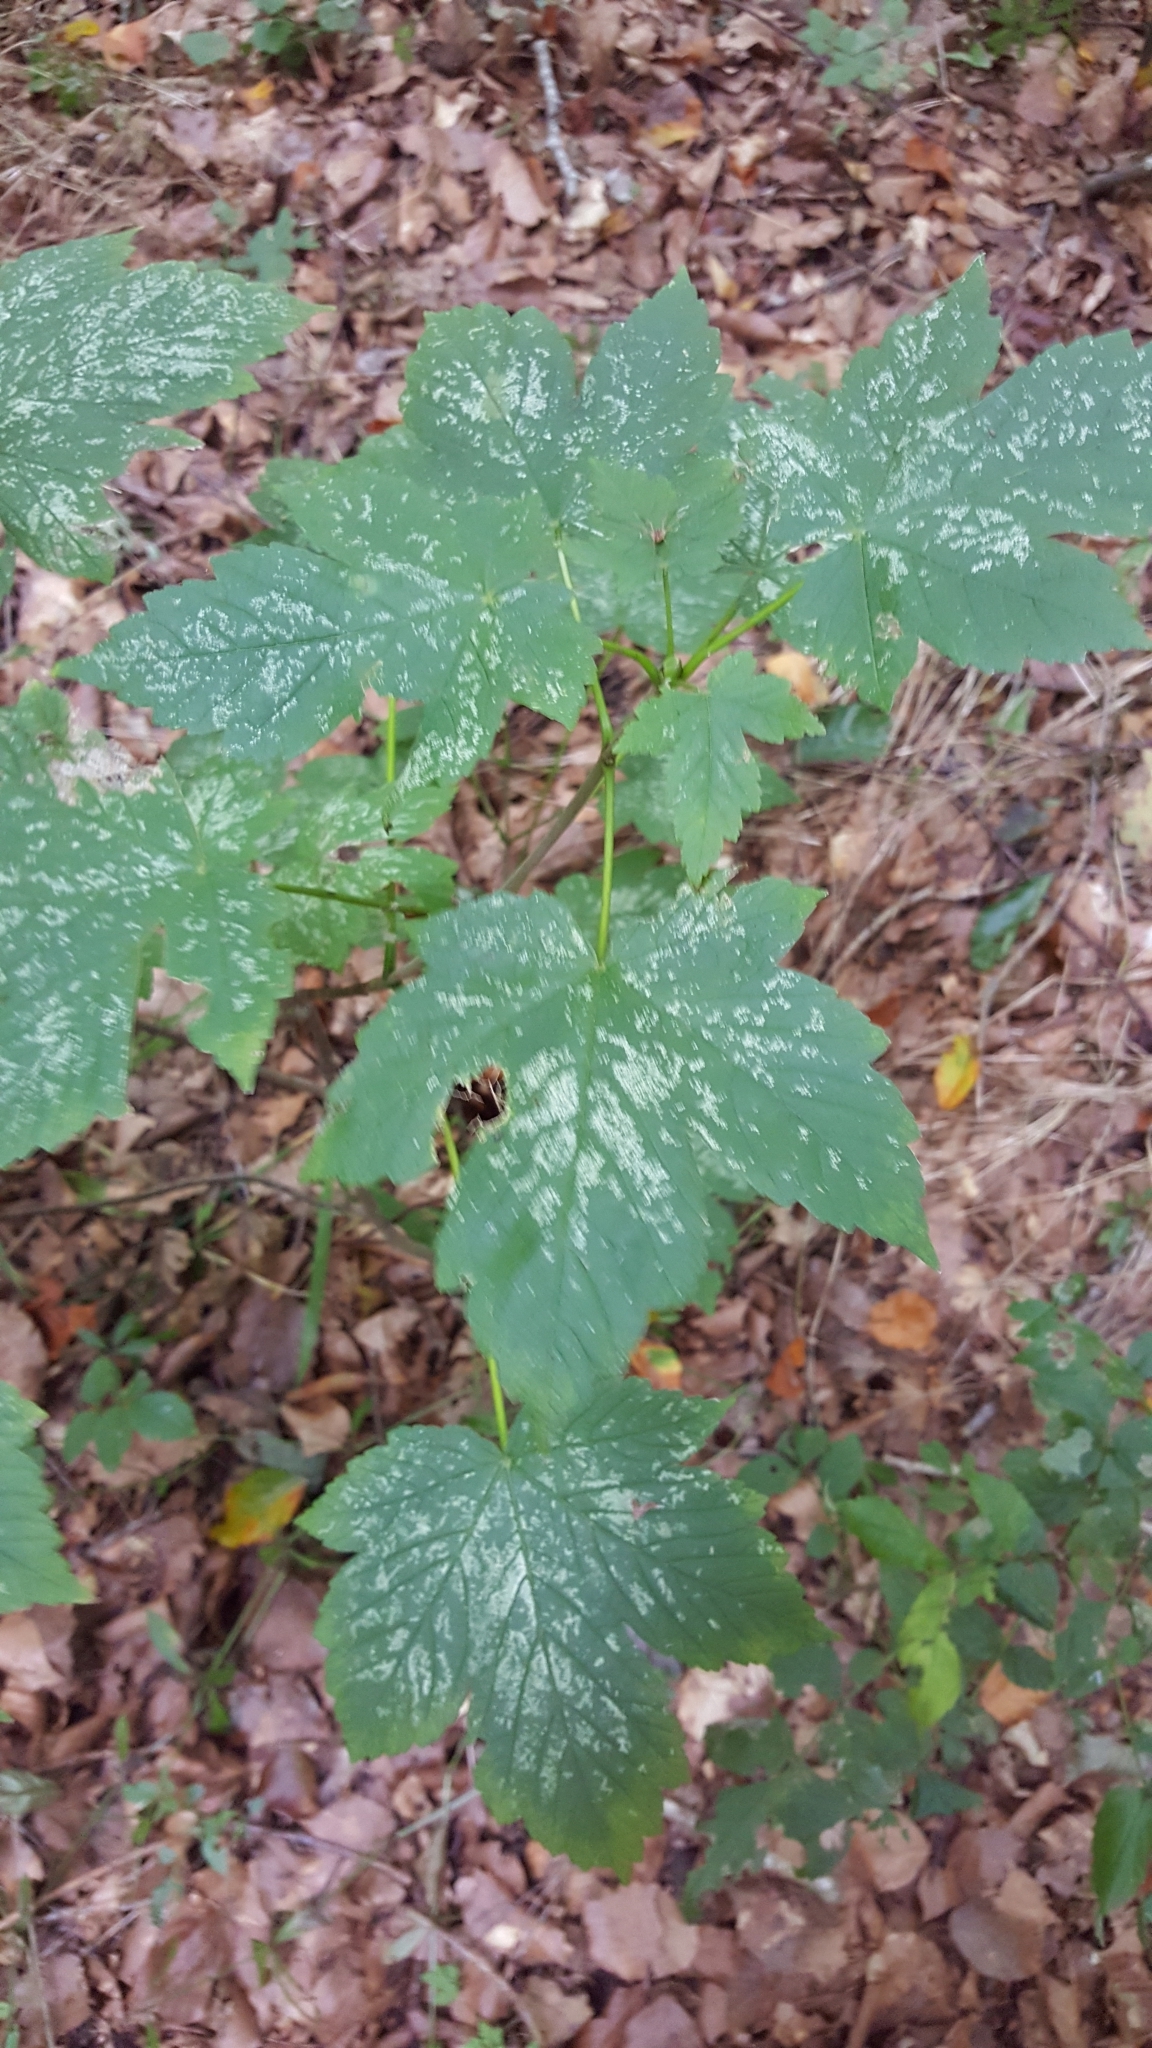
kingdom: Plantae
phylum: Tracheophyta
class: Magnoliopsida
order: Sapindales
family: Sapindaceae
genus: Acer
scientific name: Acer pseudoplatanus
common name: Sycamore
